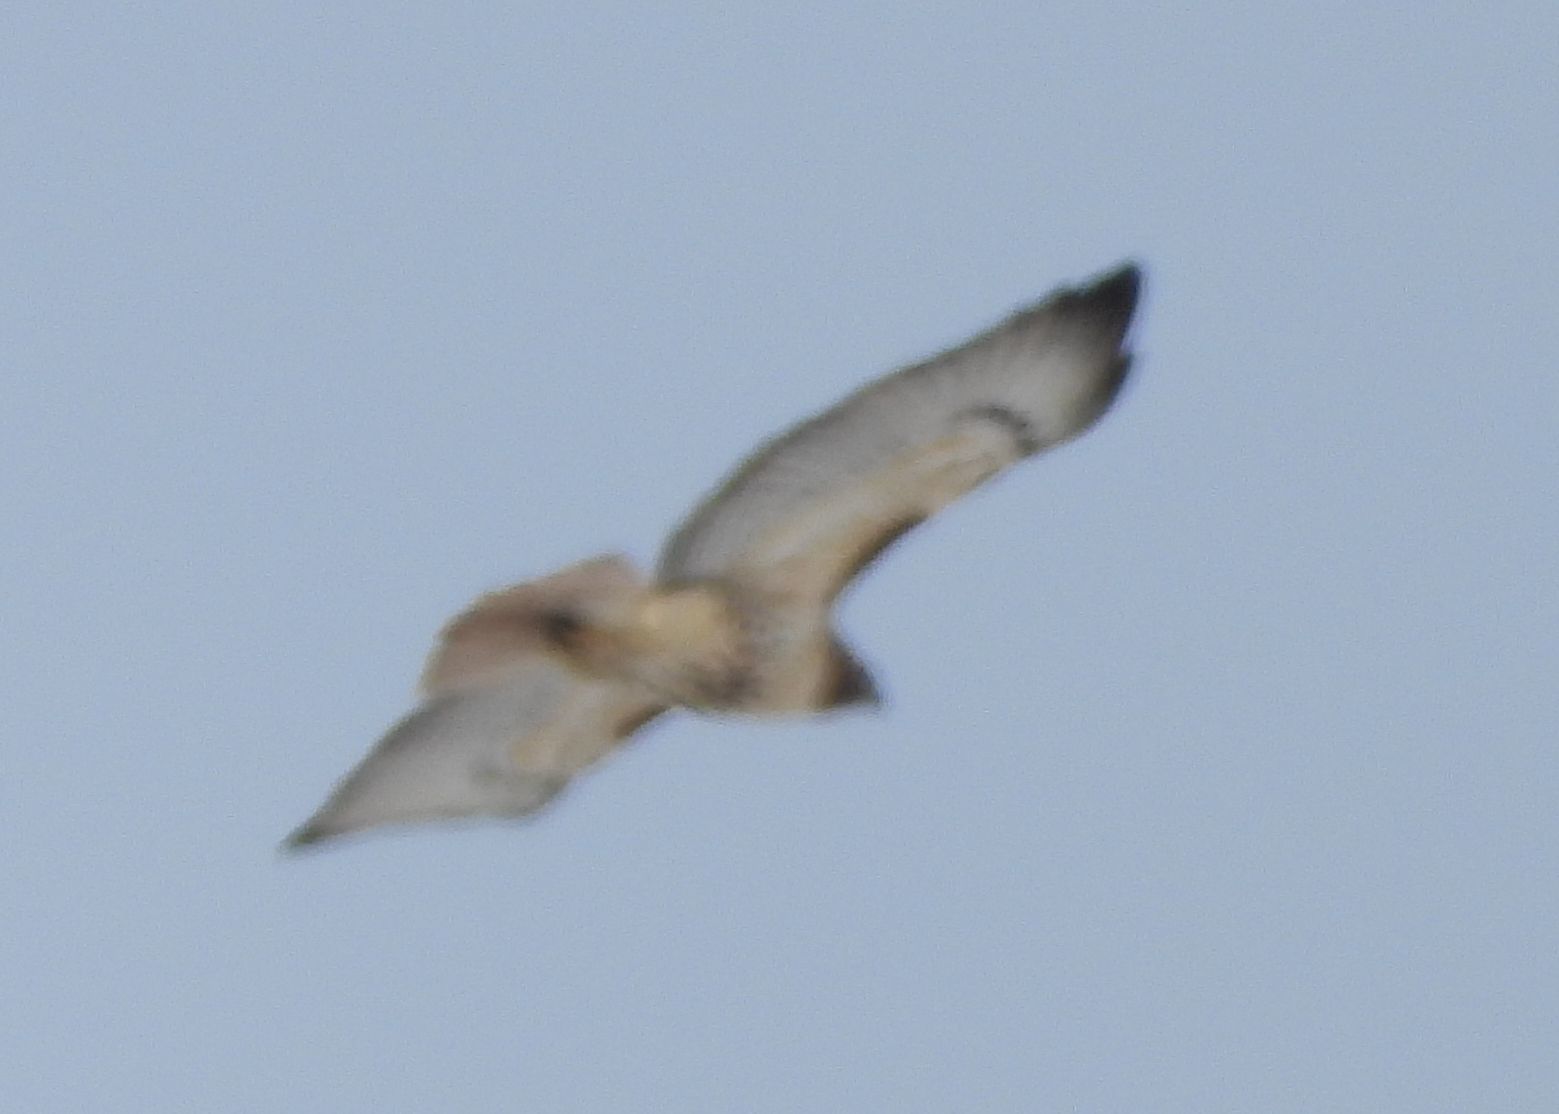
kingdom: Animalia
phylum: Chordata
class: Aves
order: Accipitriformes
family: Accipitridae
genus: Buteo
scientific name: Buteo jamaicensis
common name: Red-tailed hawk
